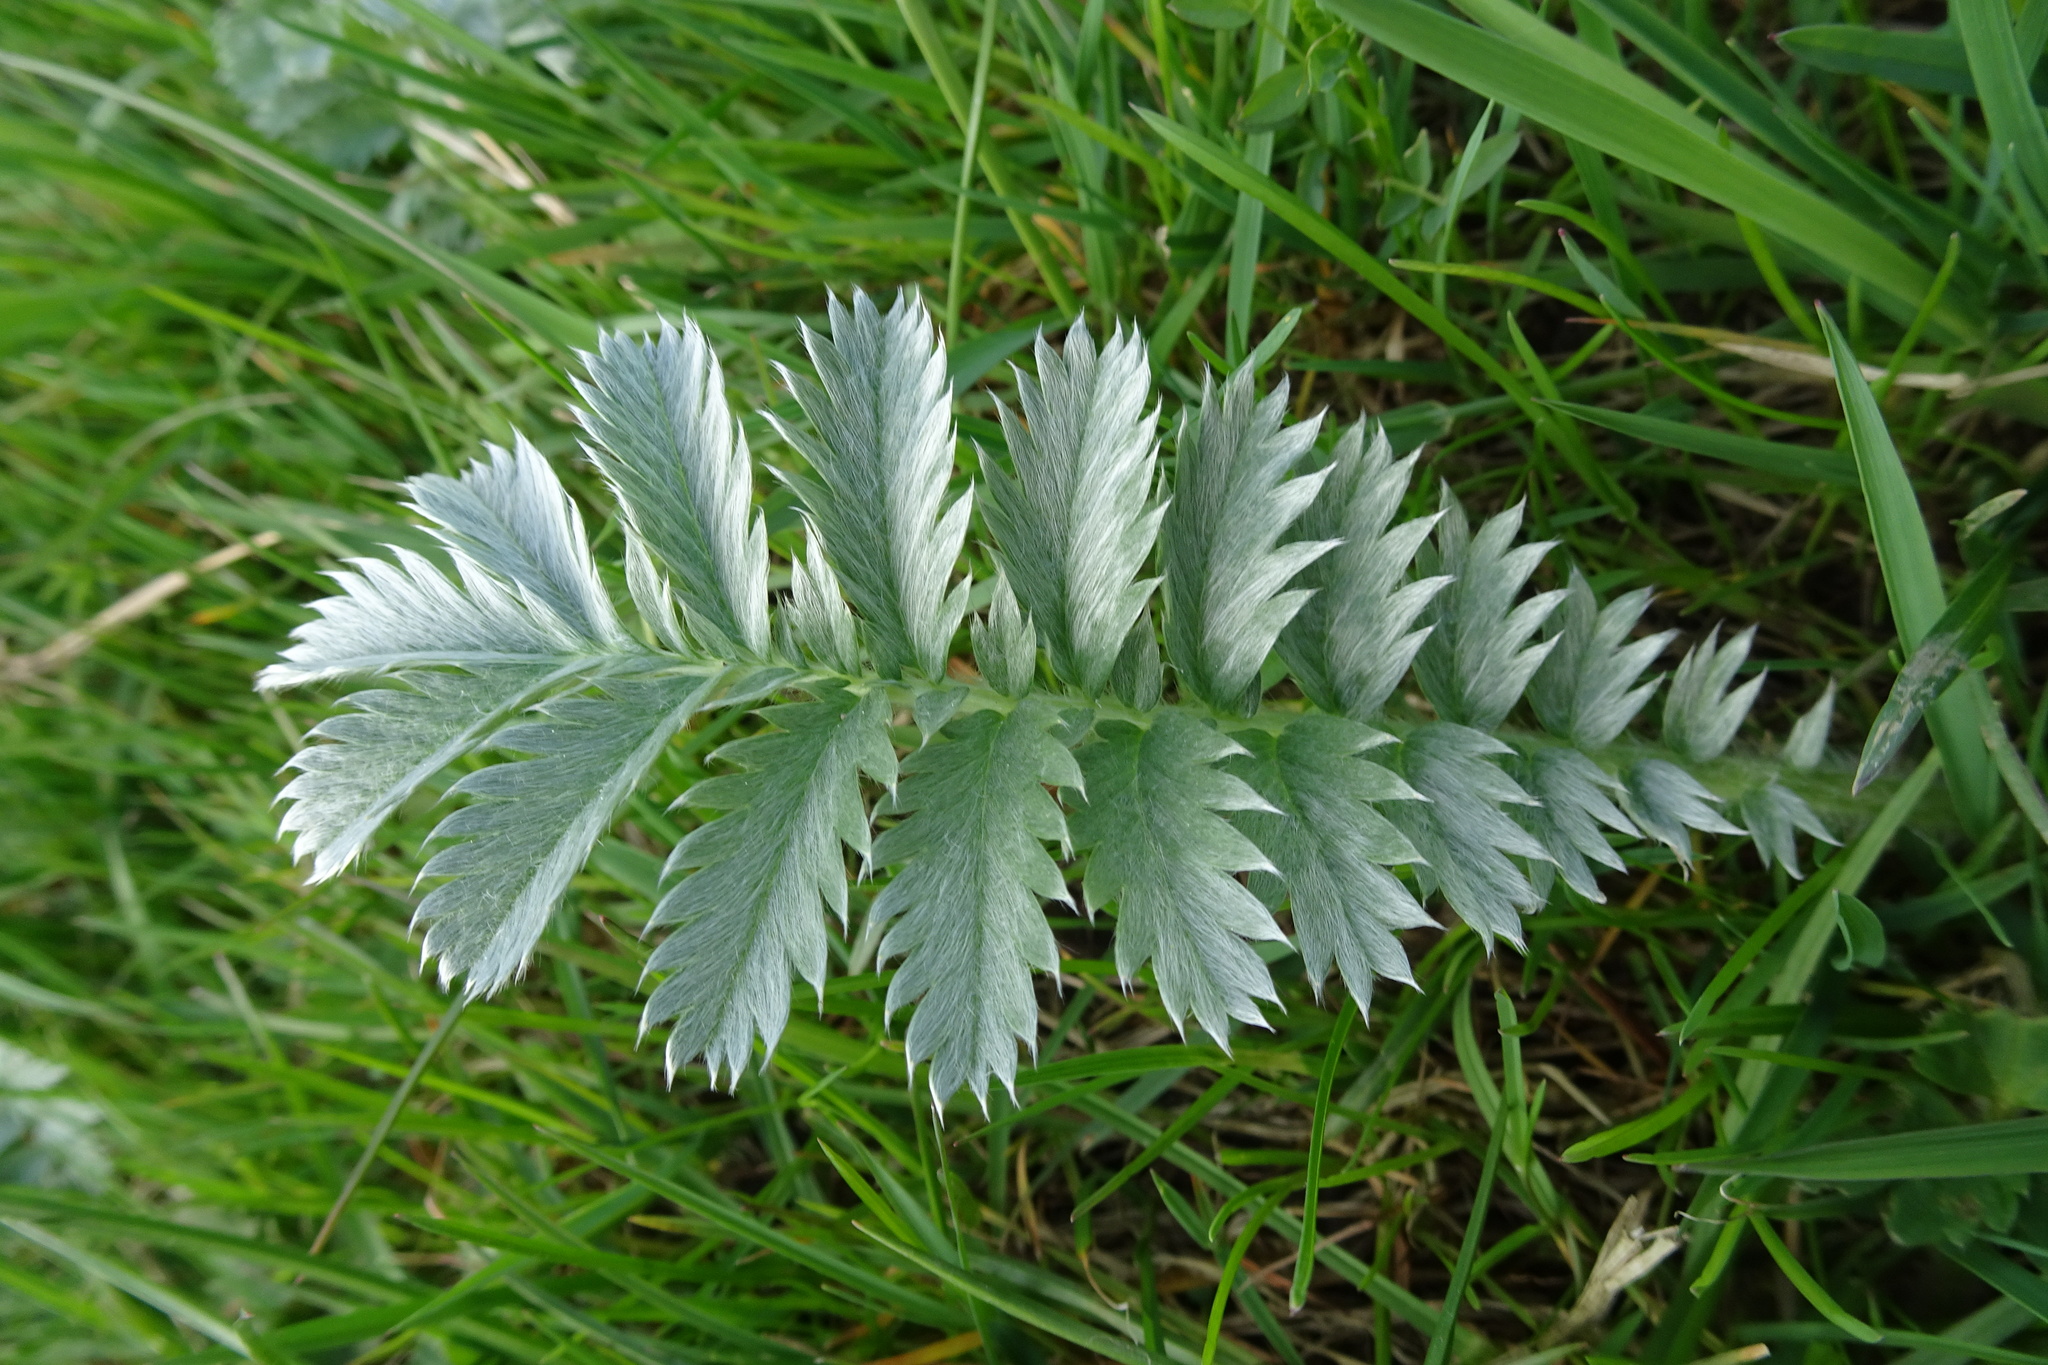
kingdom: Plantae
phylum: Tracheophyta
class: Magnoliopsida
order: Rosales
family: Rosaceae
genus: Argentina
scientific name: Argentina anserina
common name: Common silverweed
